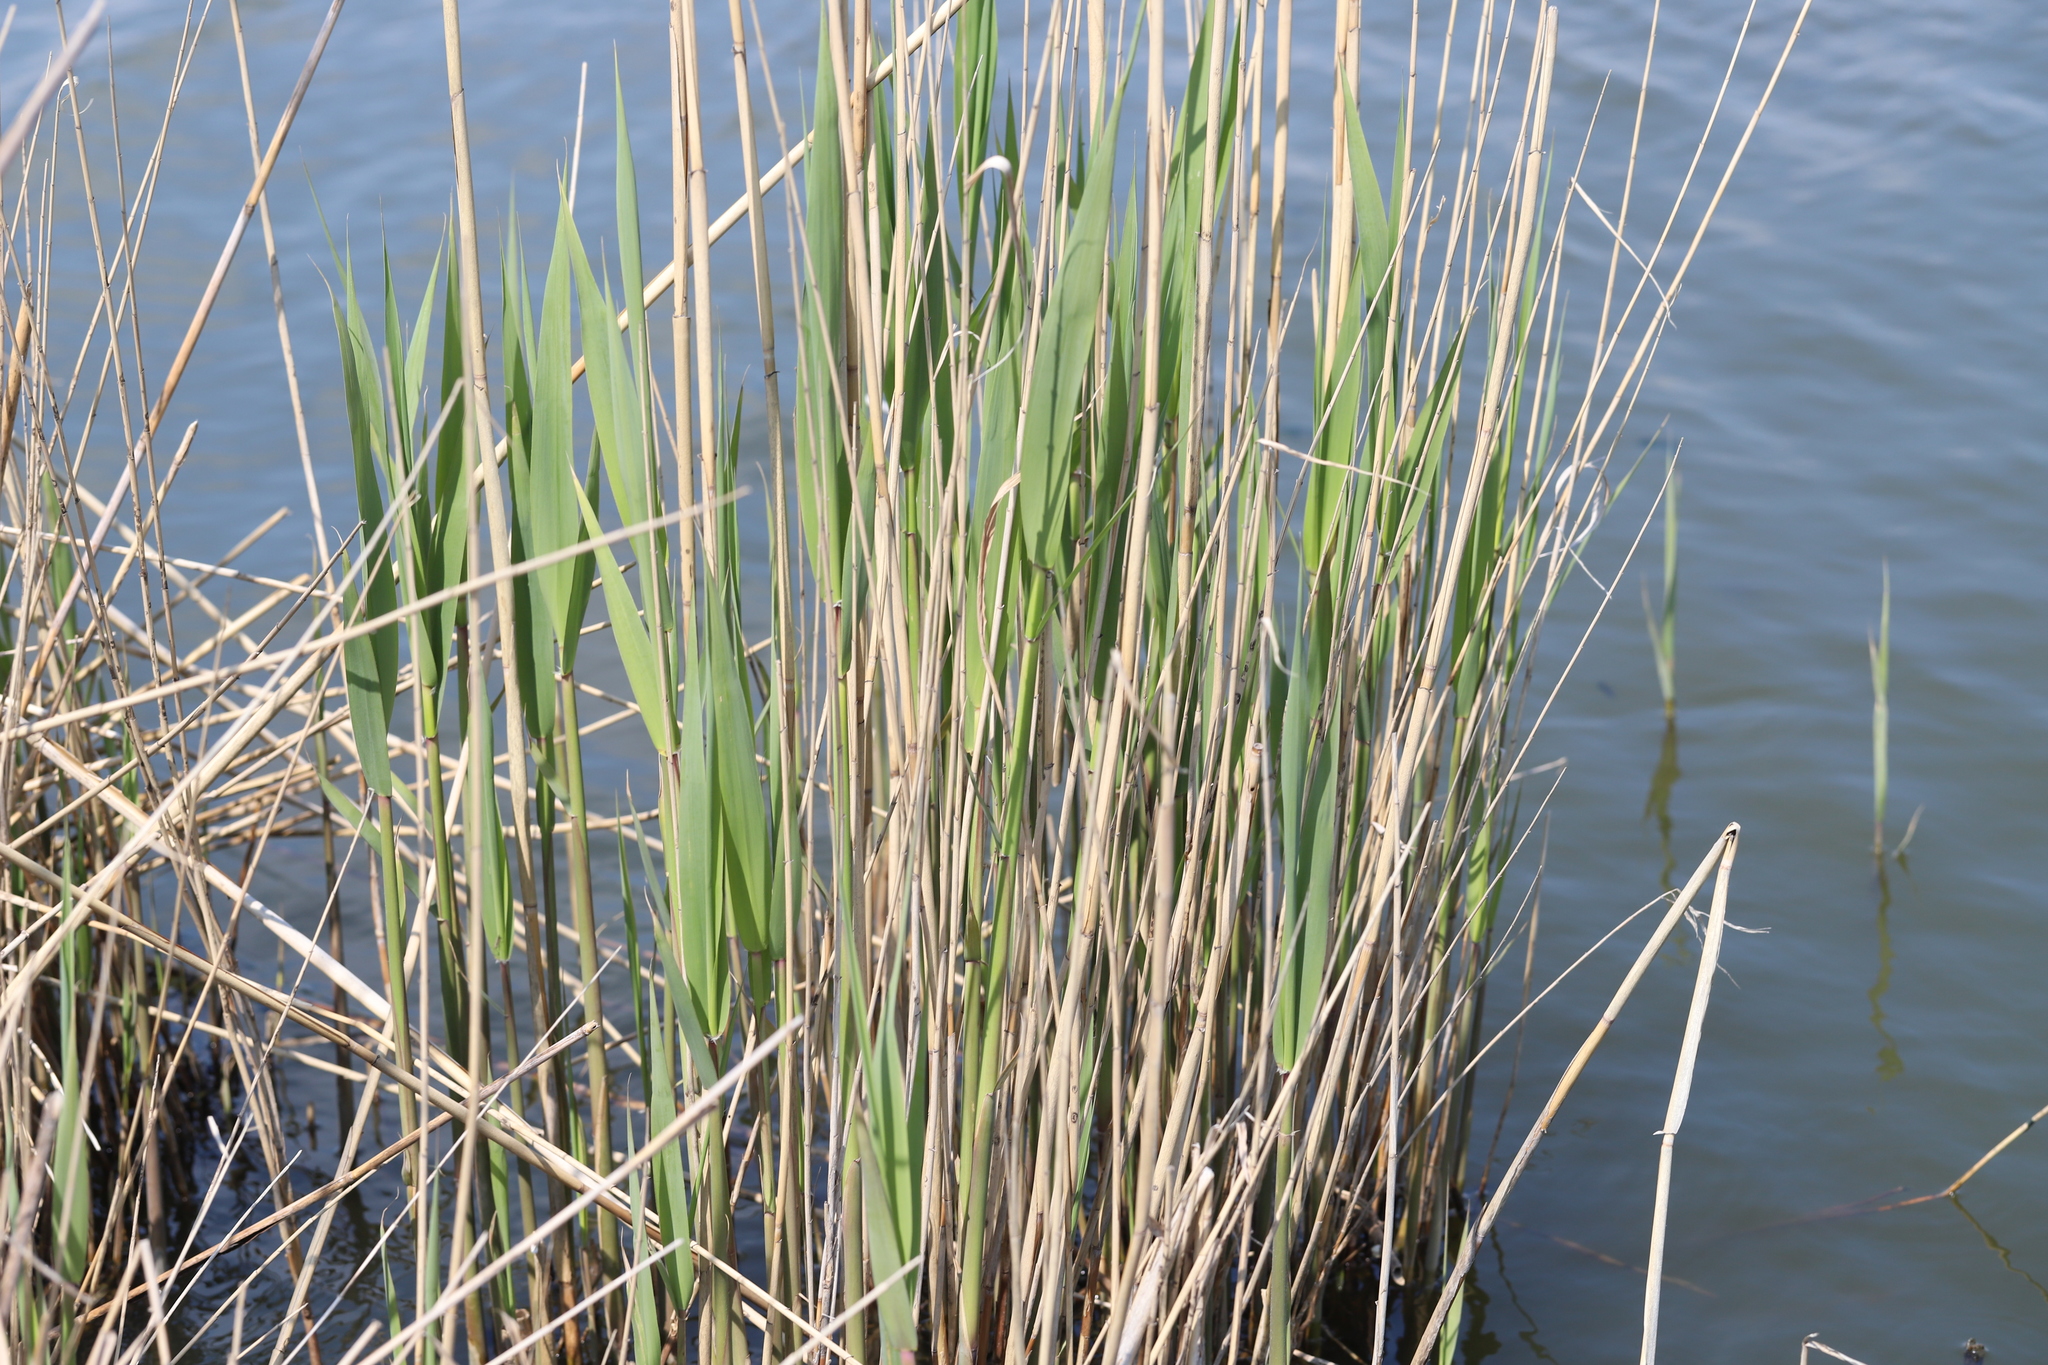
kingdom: Plantae
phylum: Tracheophyta
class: Liliopsida
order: Poales
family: Poaceae
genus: Phragmites
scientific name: Phragmites australis
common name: Common reed
